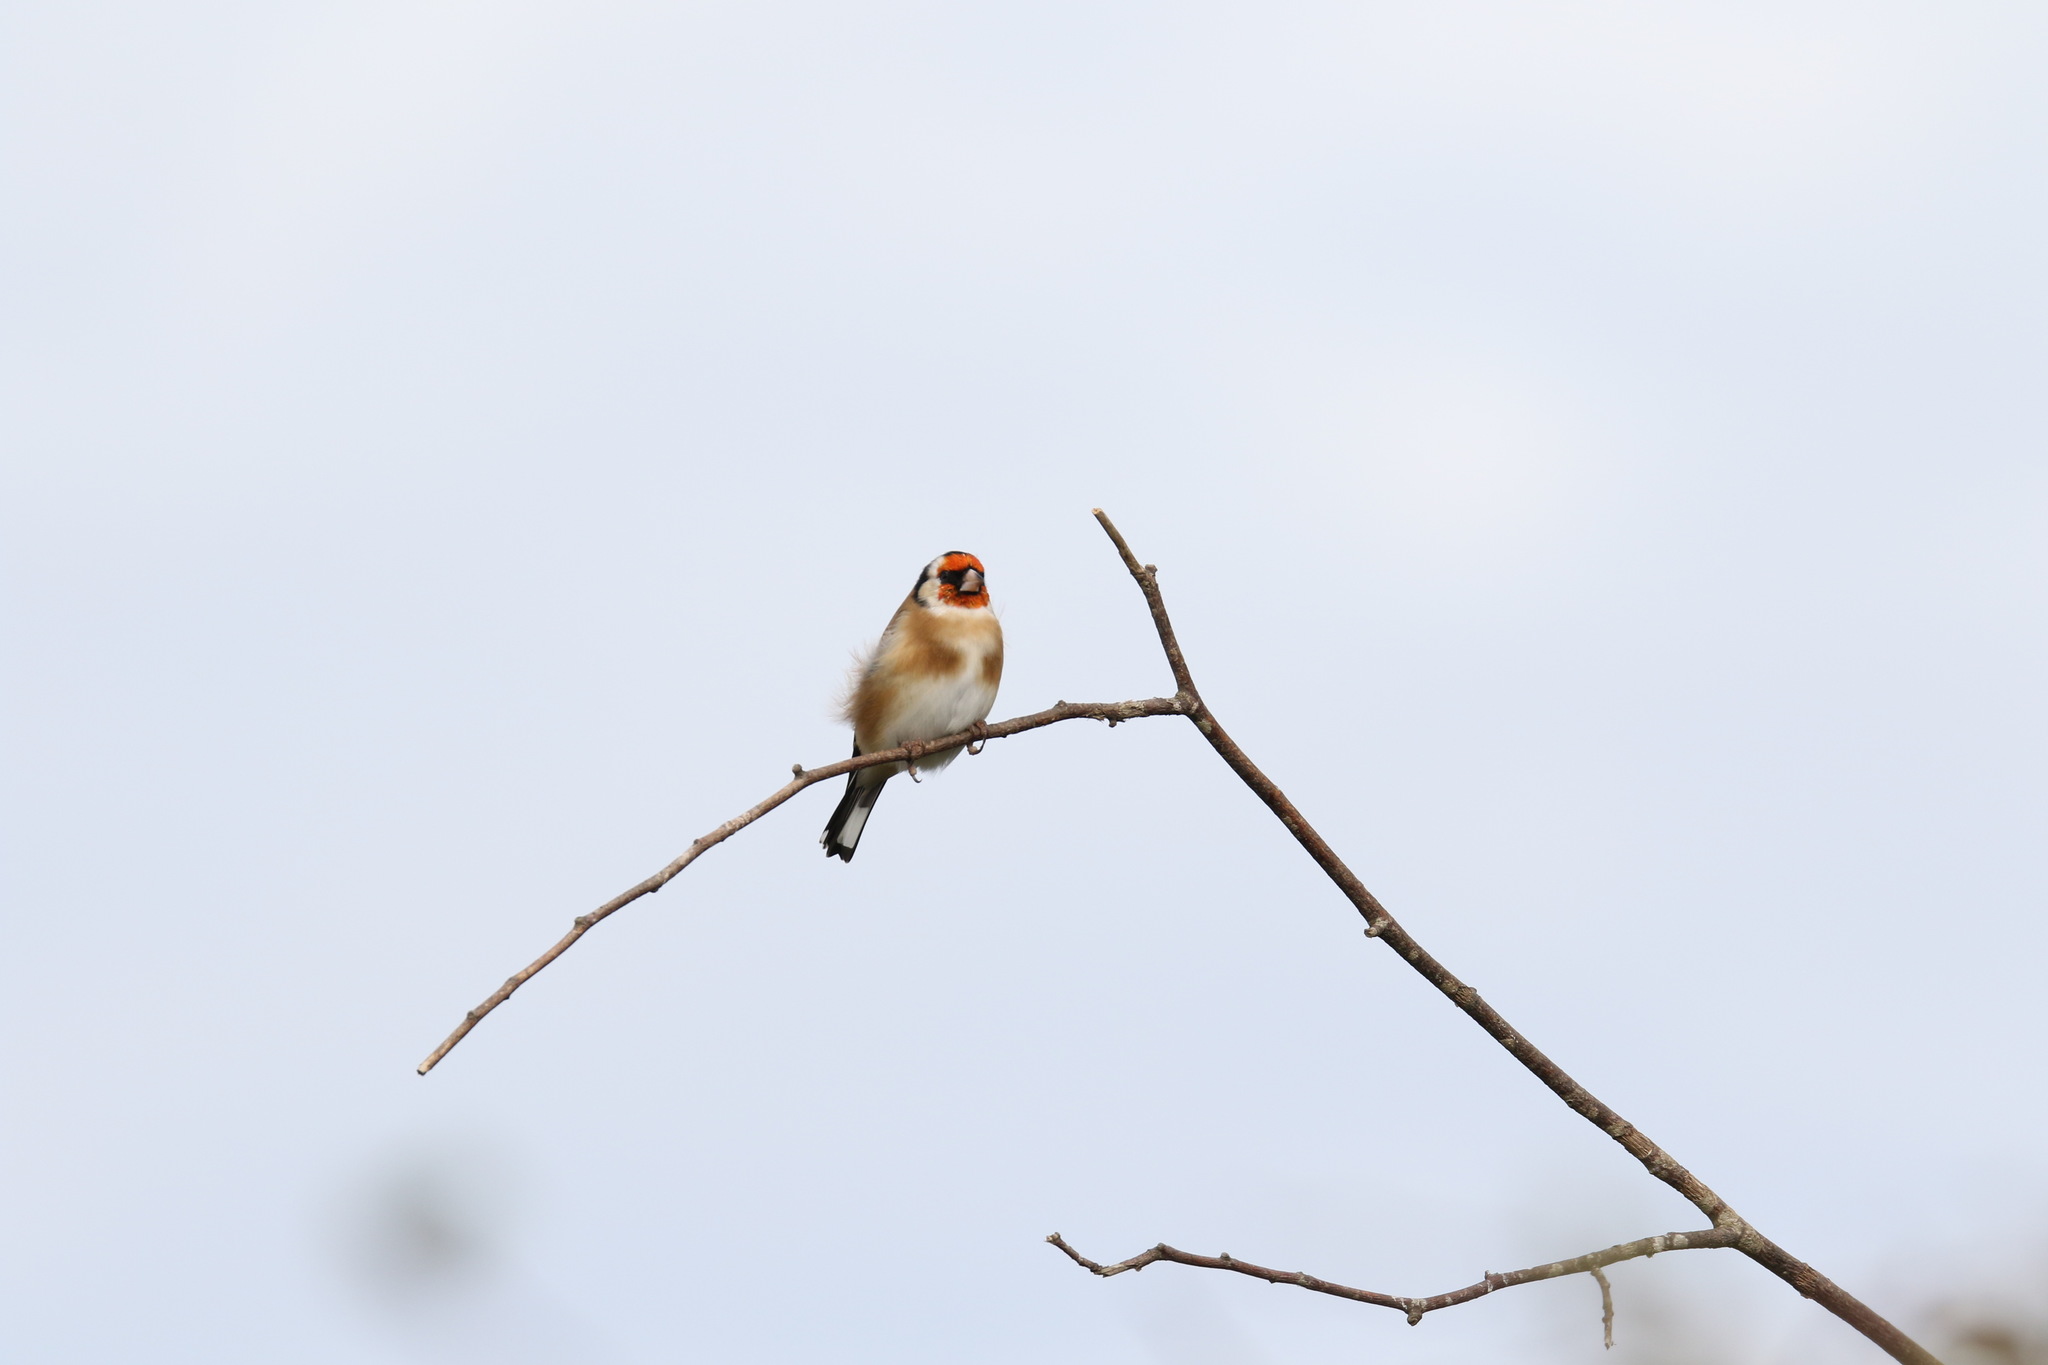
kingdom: Animalia
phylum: Chordata
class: Aves
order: Passeriformes
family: Fringillidae
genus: Carduelis
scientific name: Carduelis carduelis
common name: European goldfinch
